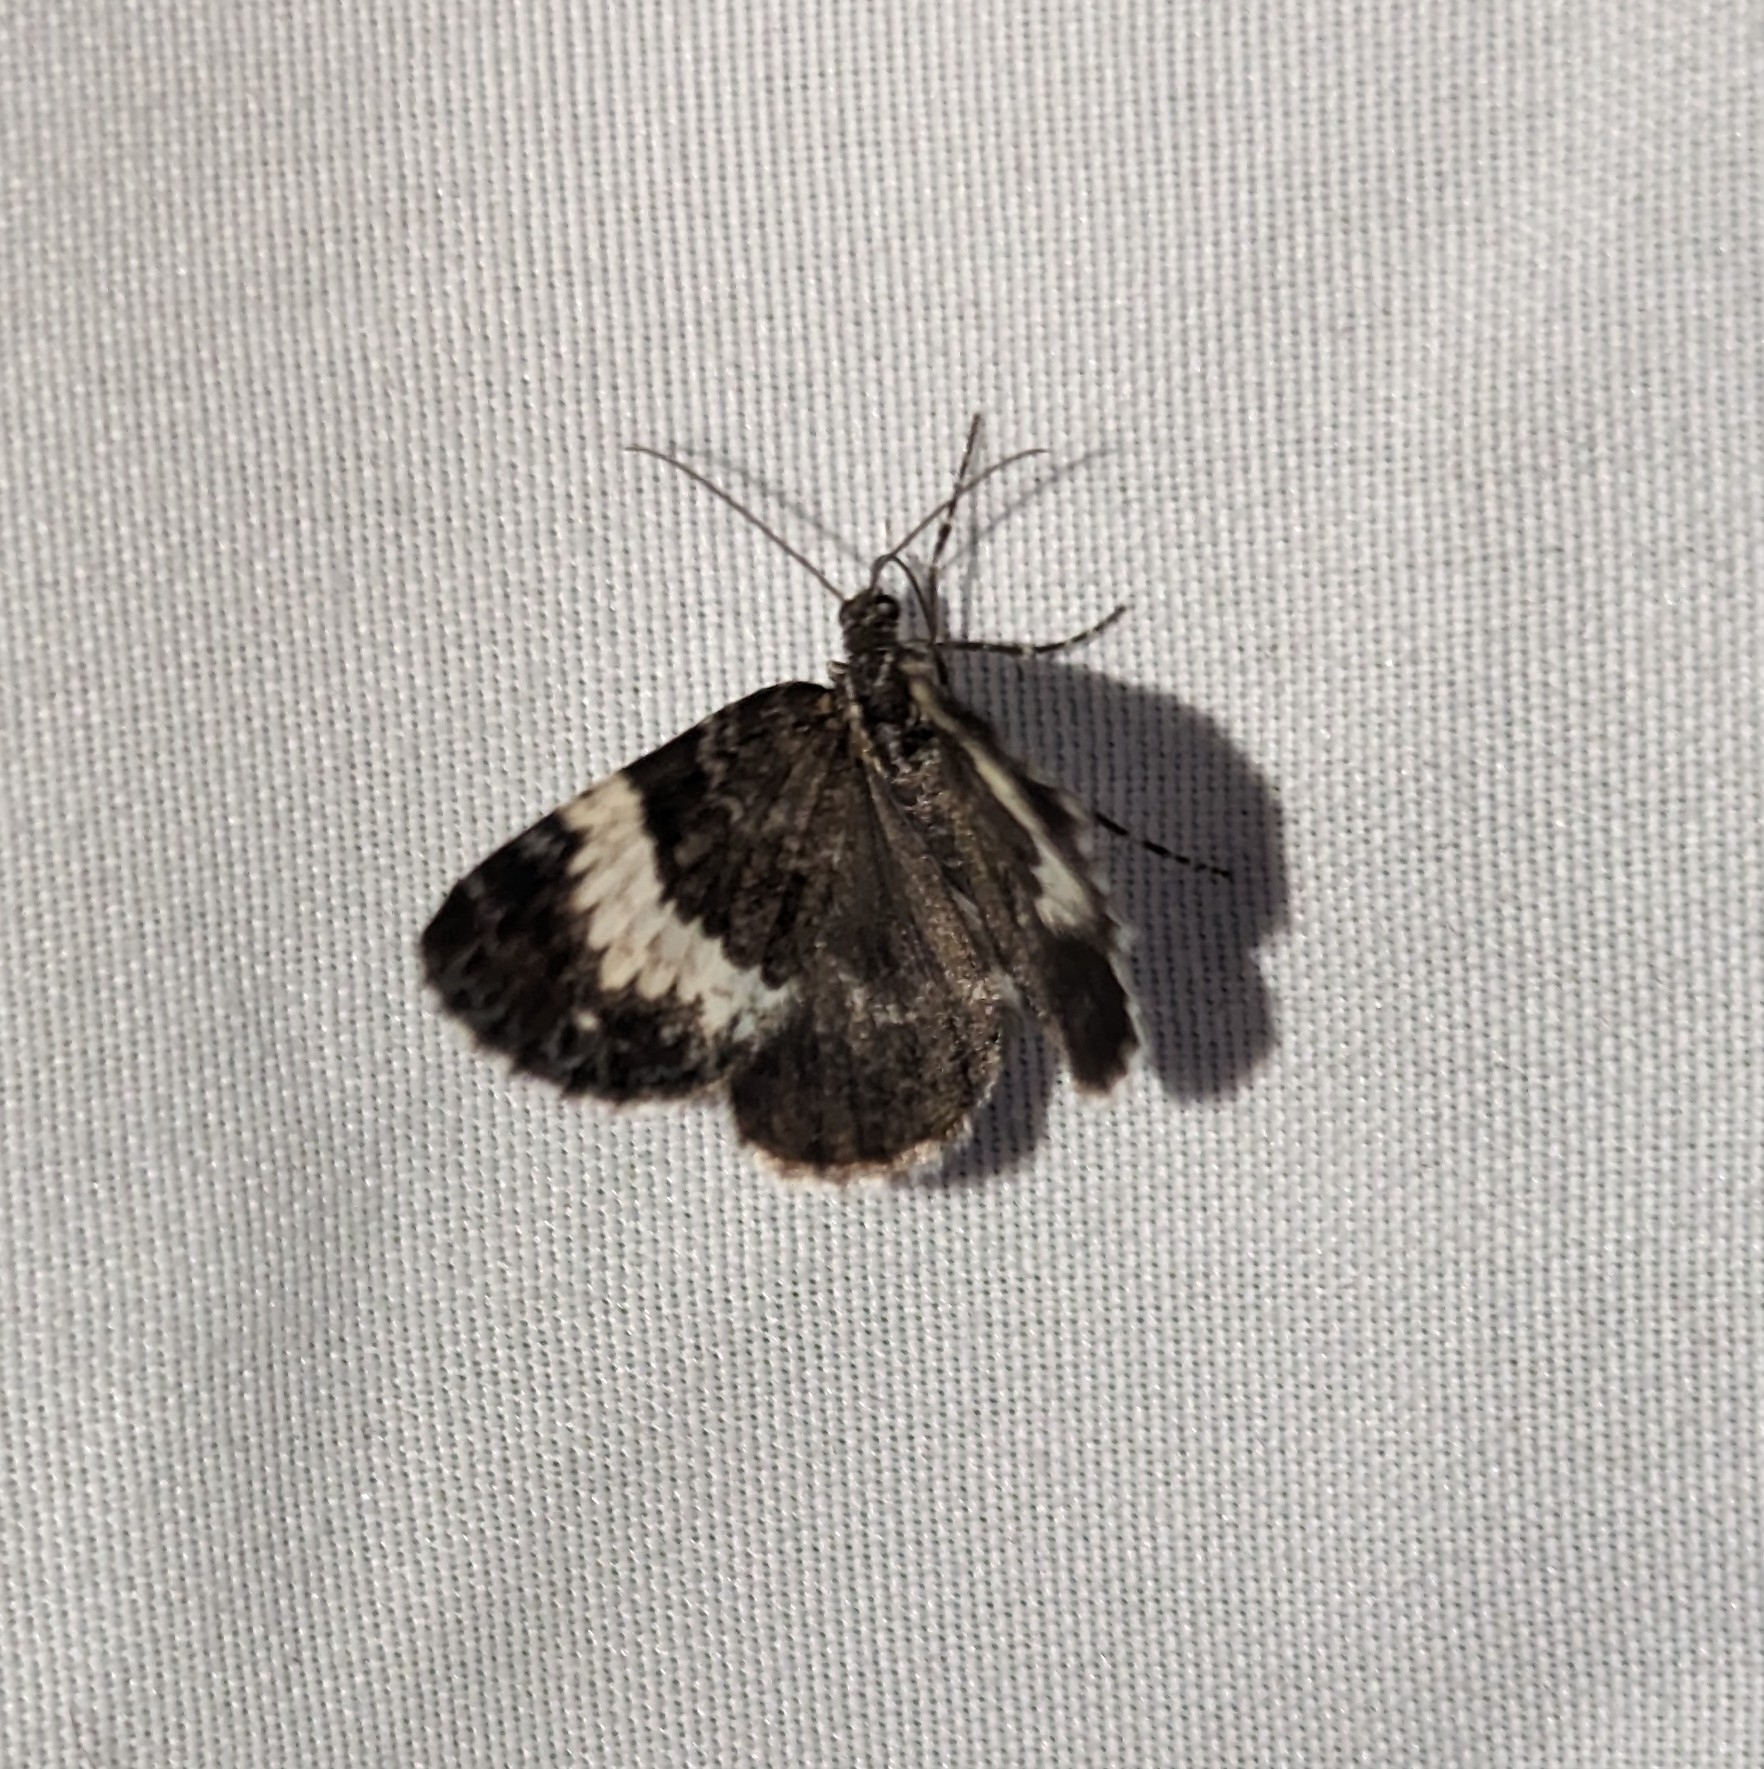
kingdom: Animalia
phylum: Arthropoda
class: Insecta
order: Lepidoptera
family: Geometridae
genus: Spargania
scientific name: Spargania luctuata
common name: White-banded carpet
